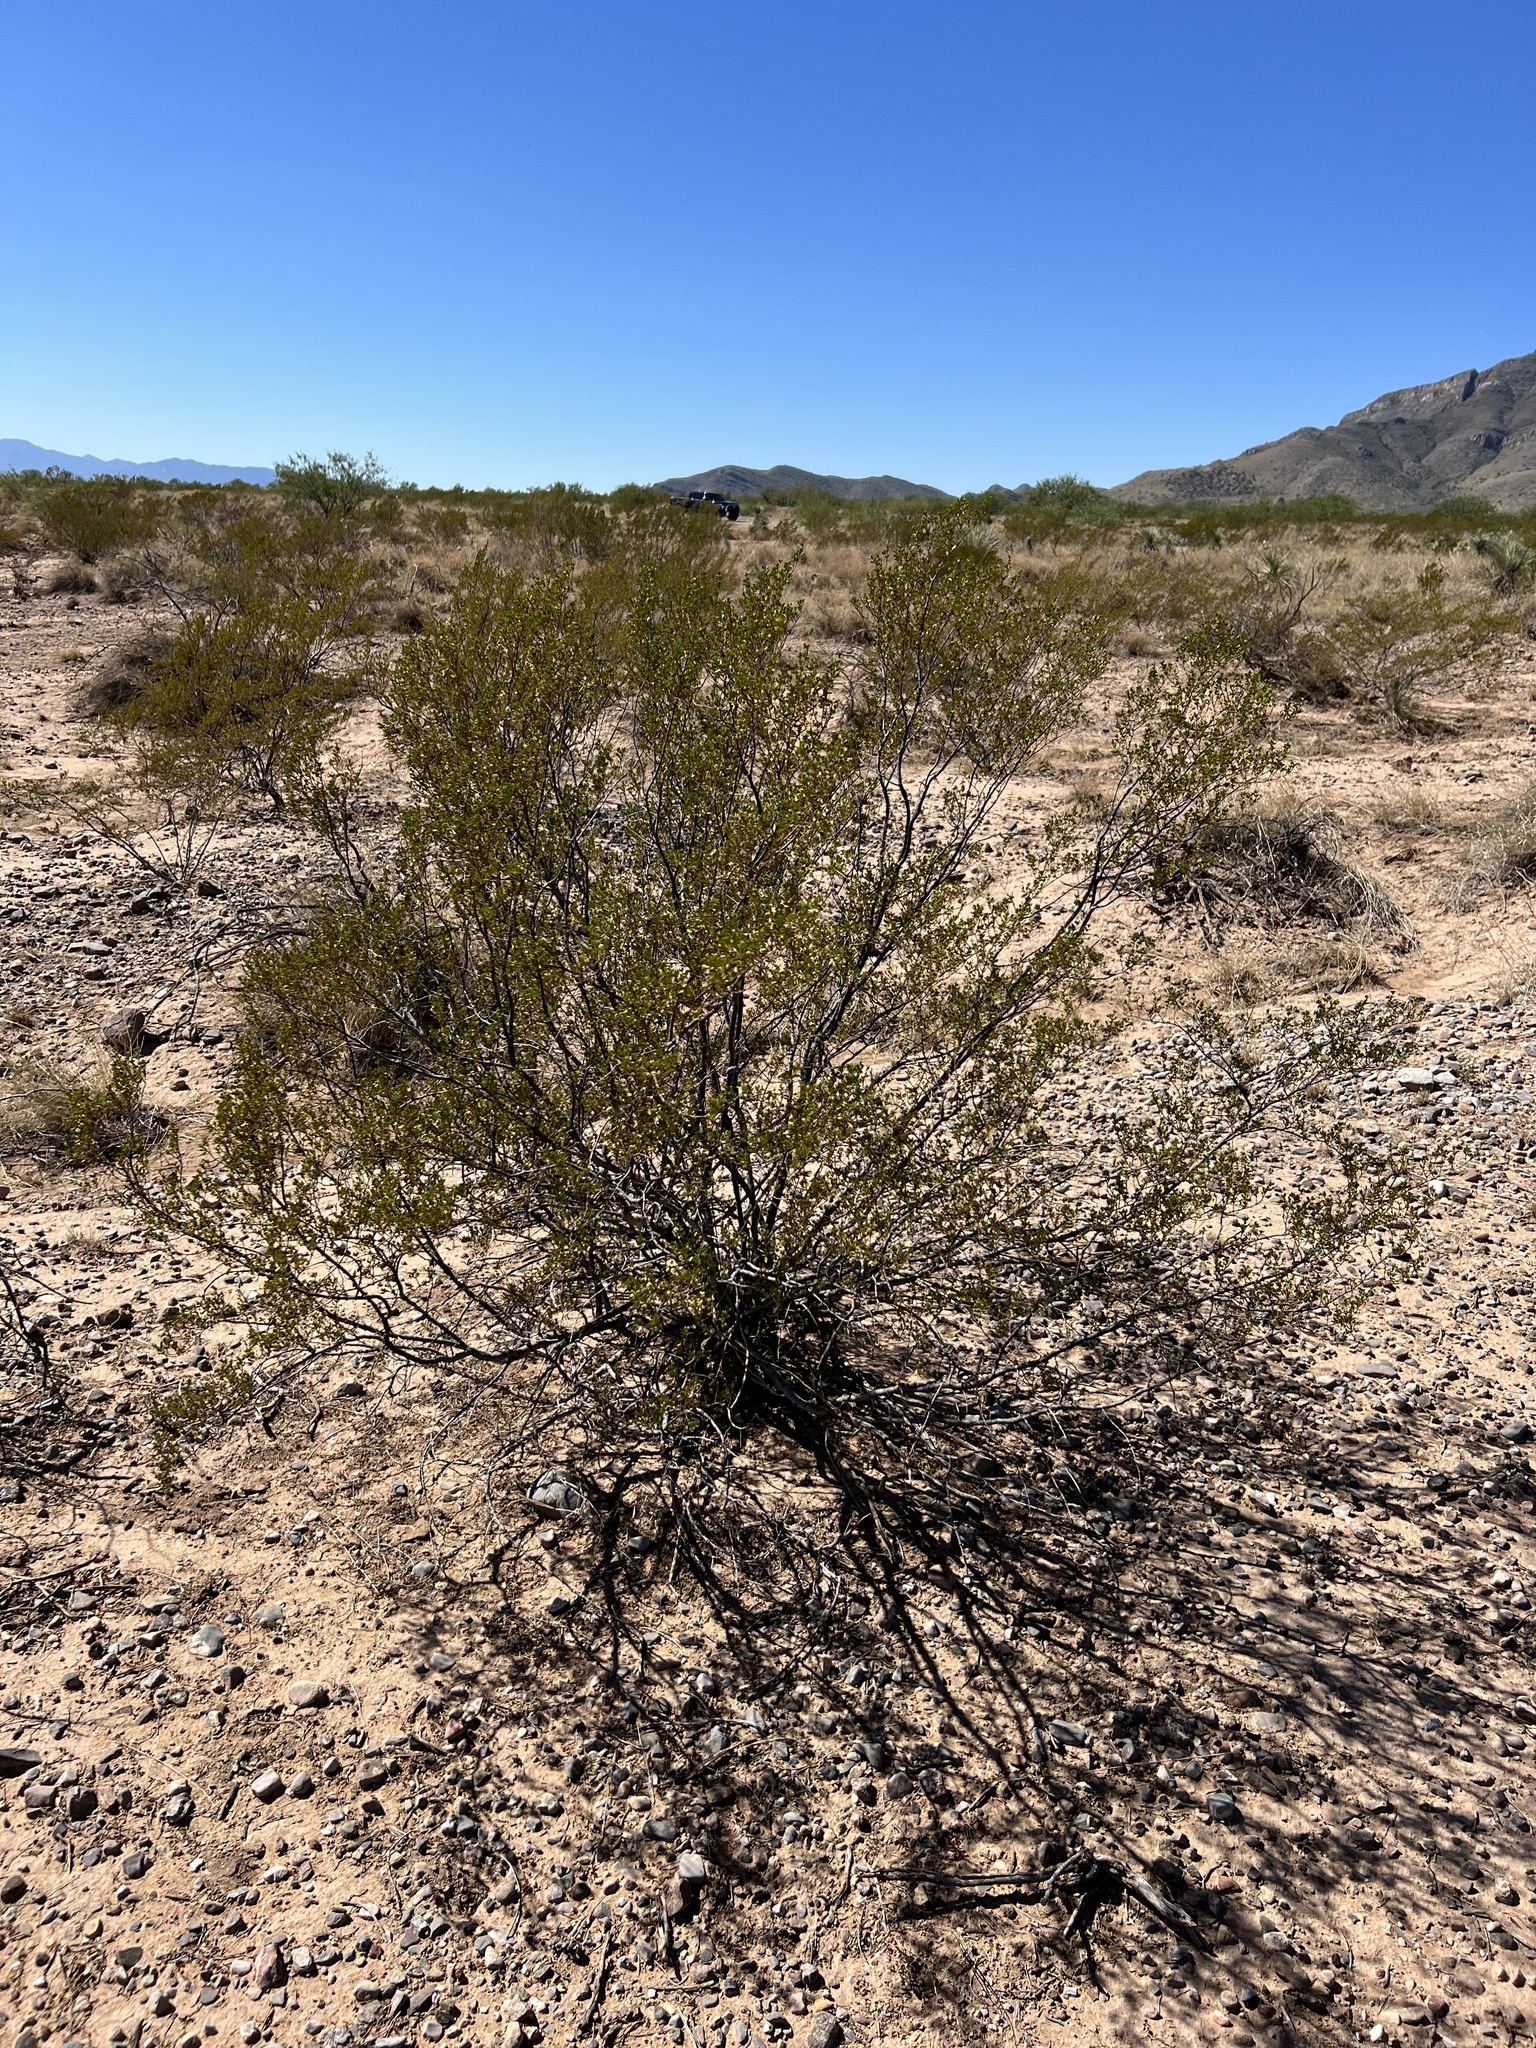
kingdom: Plantae
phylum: Tracheophyta
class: Magnoliopsida
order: Zygophyllales
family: Zygophyllaceae
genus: Larrea
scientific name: Larrea tridentata
